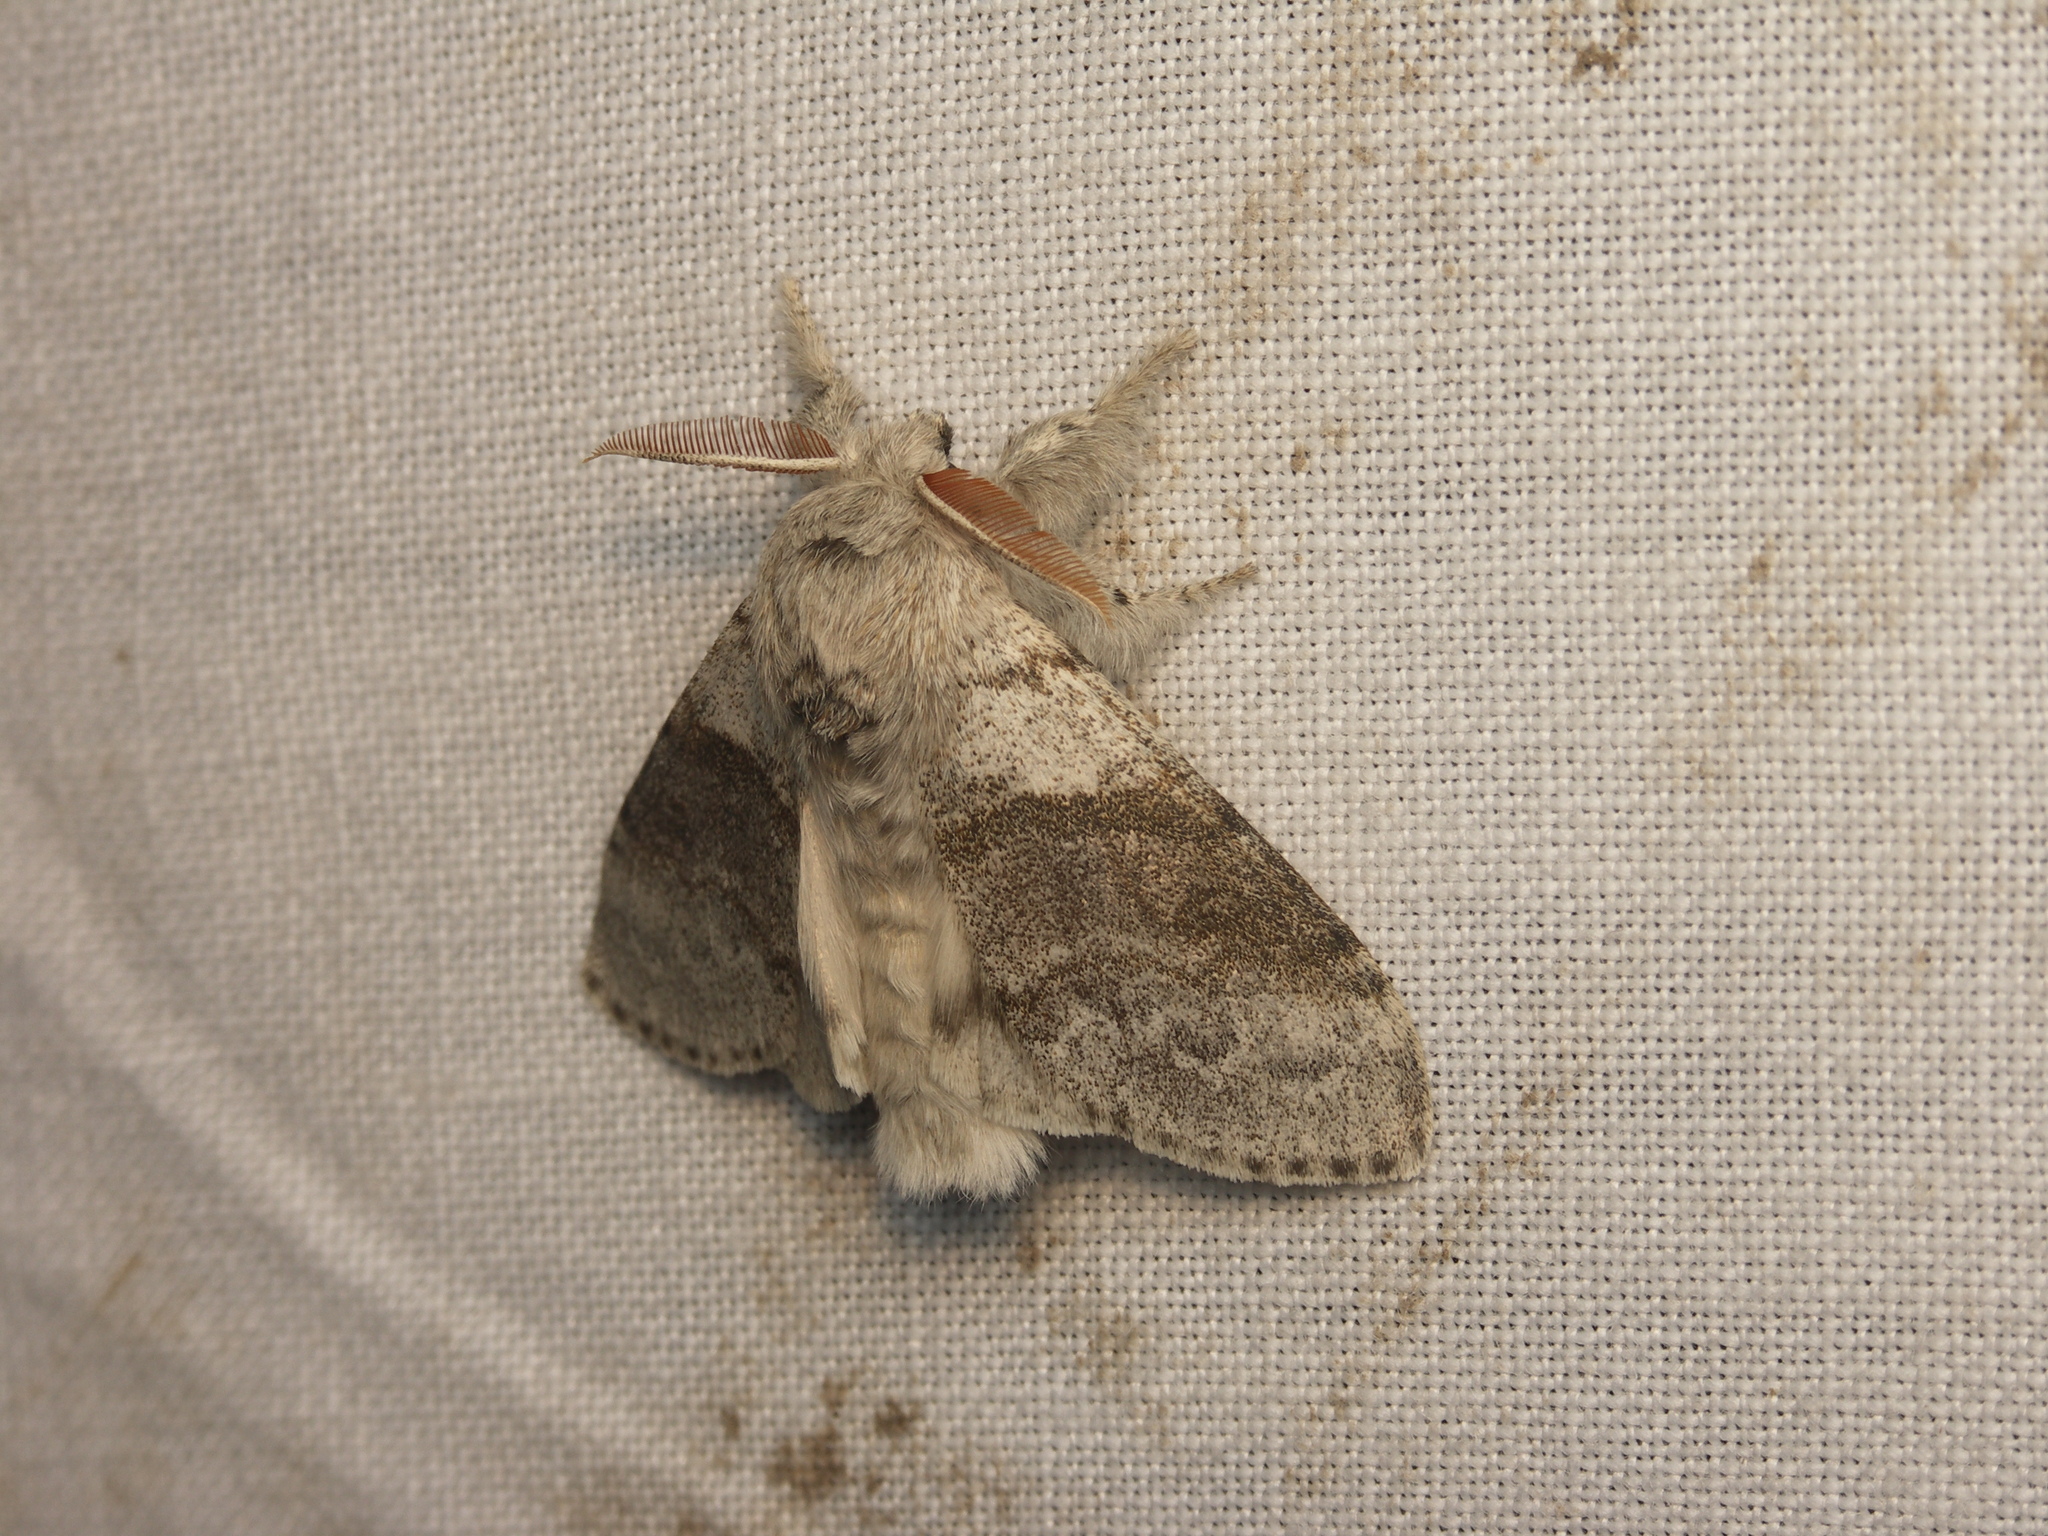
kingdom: Animalia
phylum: Arthropoda
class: Insecta
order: Lepidoptera
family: Erebidae
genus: Calliteara
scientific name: Calliteara pudibunda
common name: Pale tussock
